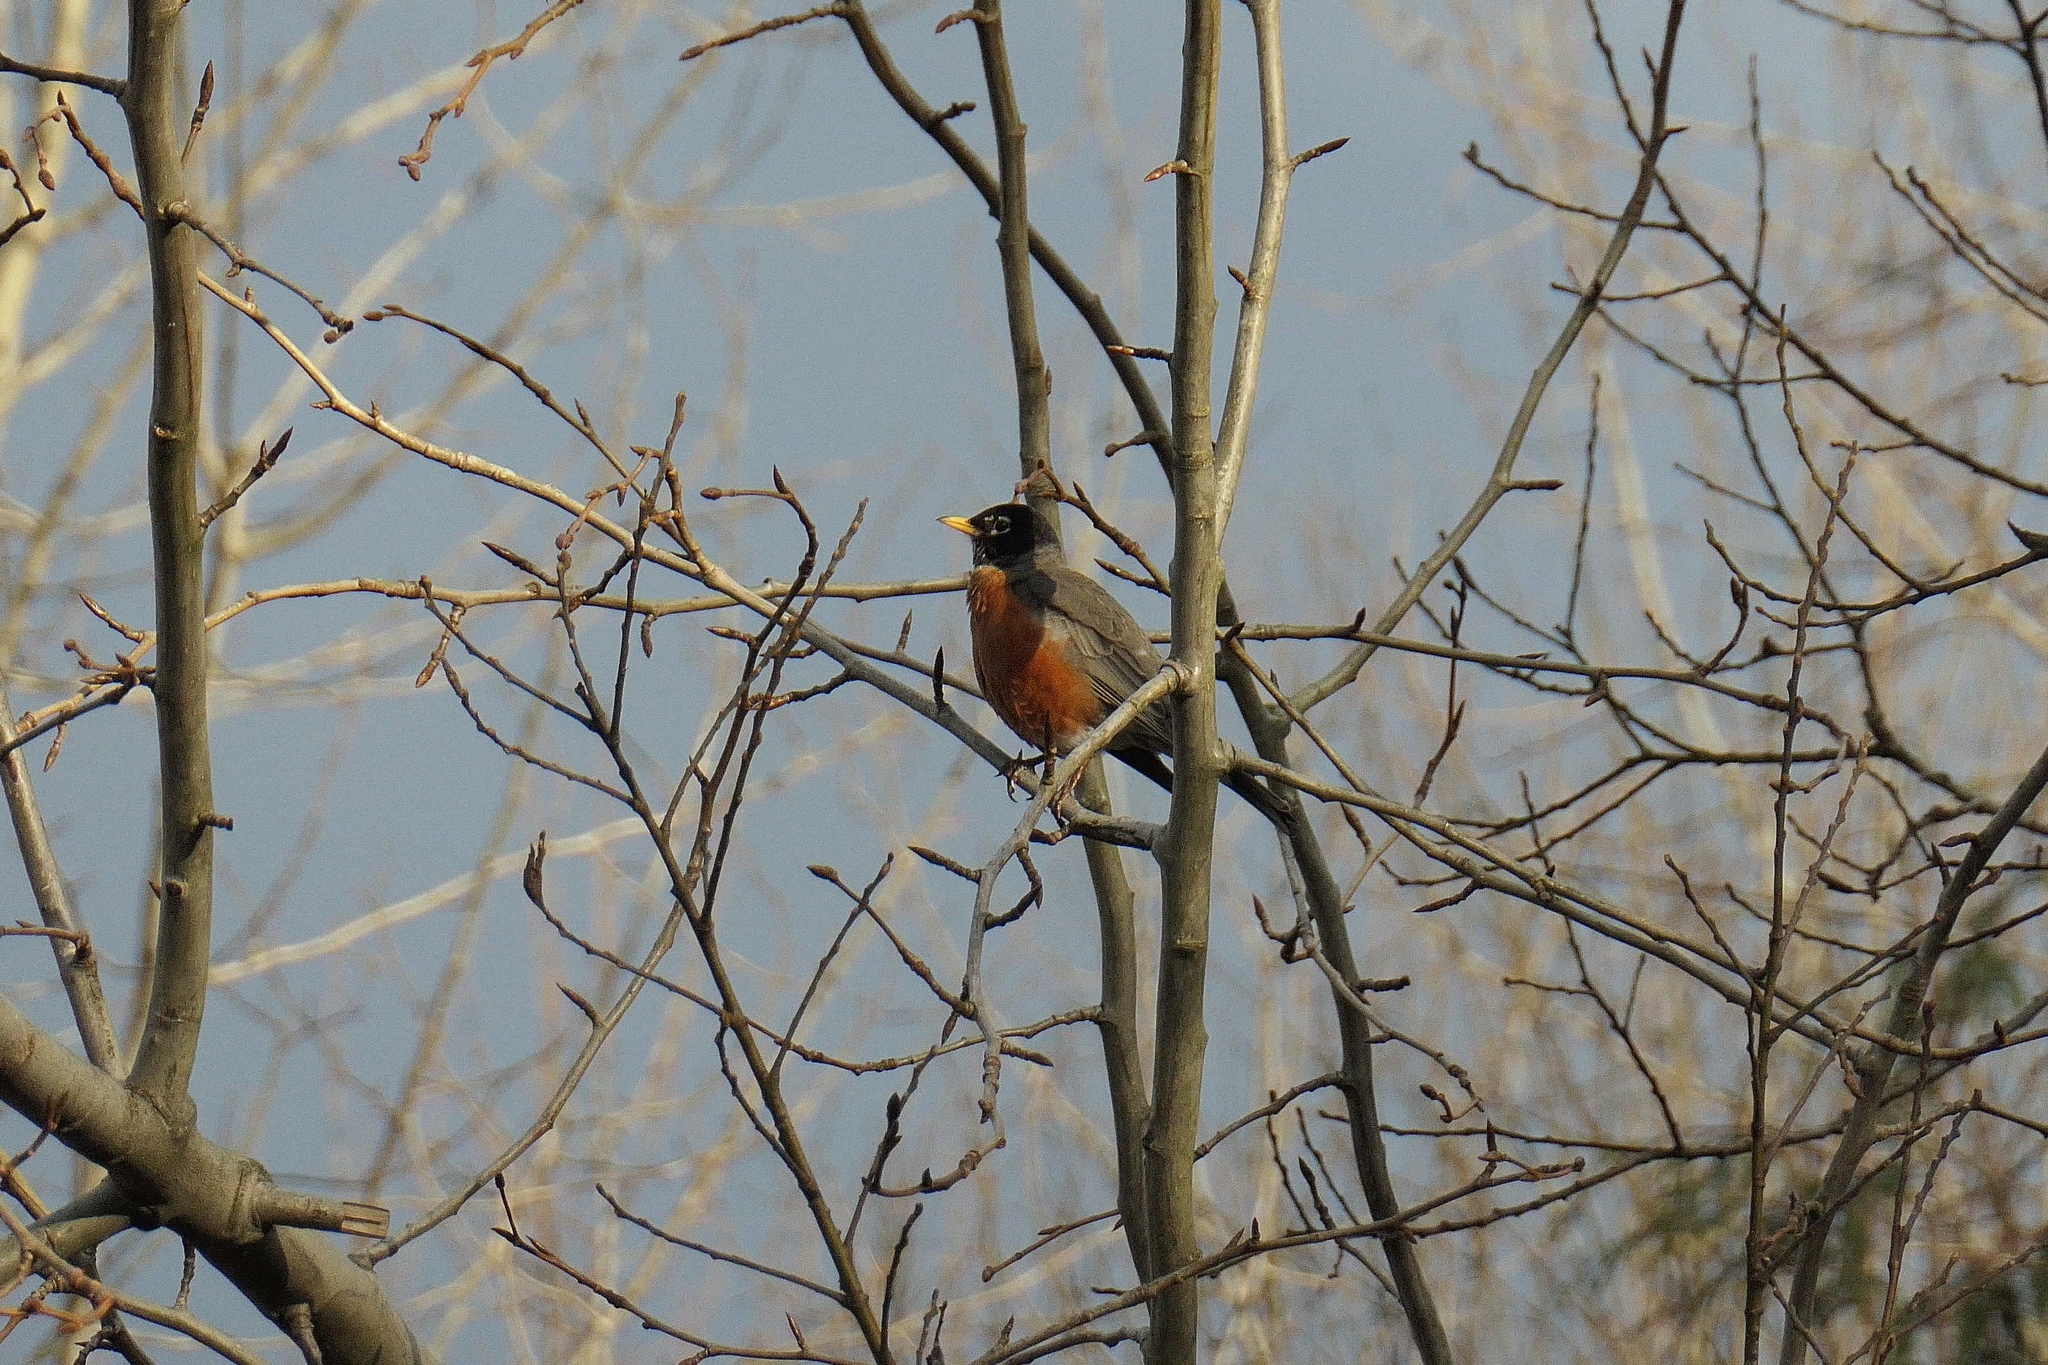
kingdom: Animalia
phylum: Chordata
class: Aves
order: Passeriformes
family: Turdidae
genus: Turdus
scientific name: Turdus migratorius
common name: American robin
